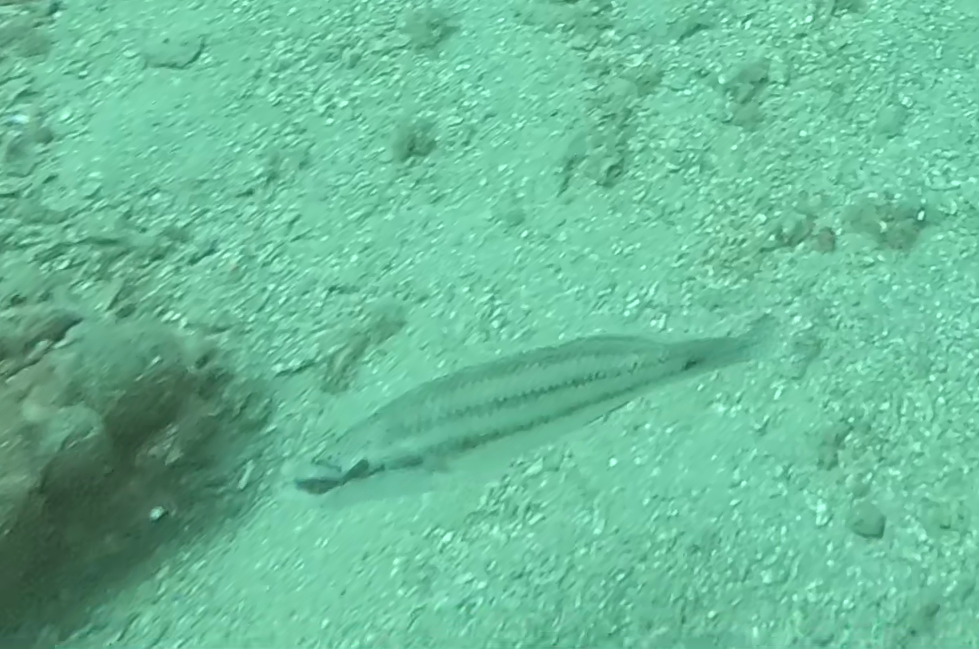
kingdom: Animalia
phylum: Chordata
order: Perciformes
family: Labridae
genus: Symphodus
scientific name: Symphodus tinca
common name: Peacock wrasse
